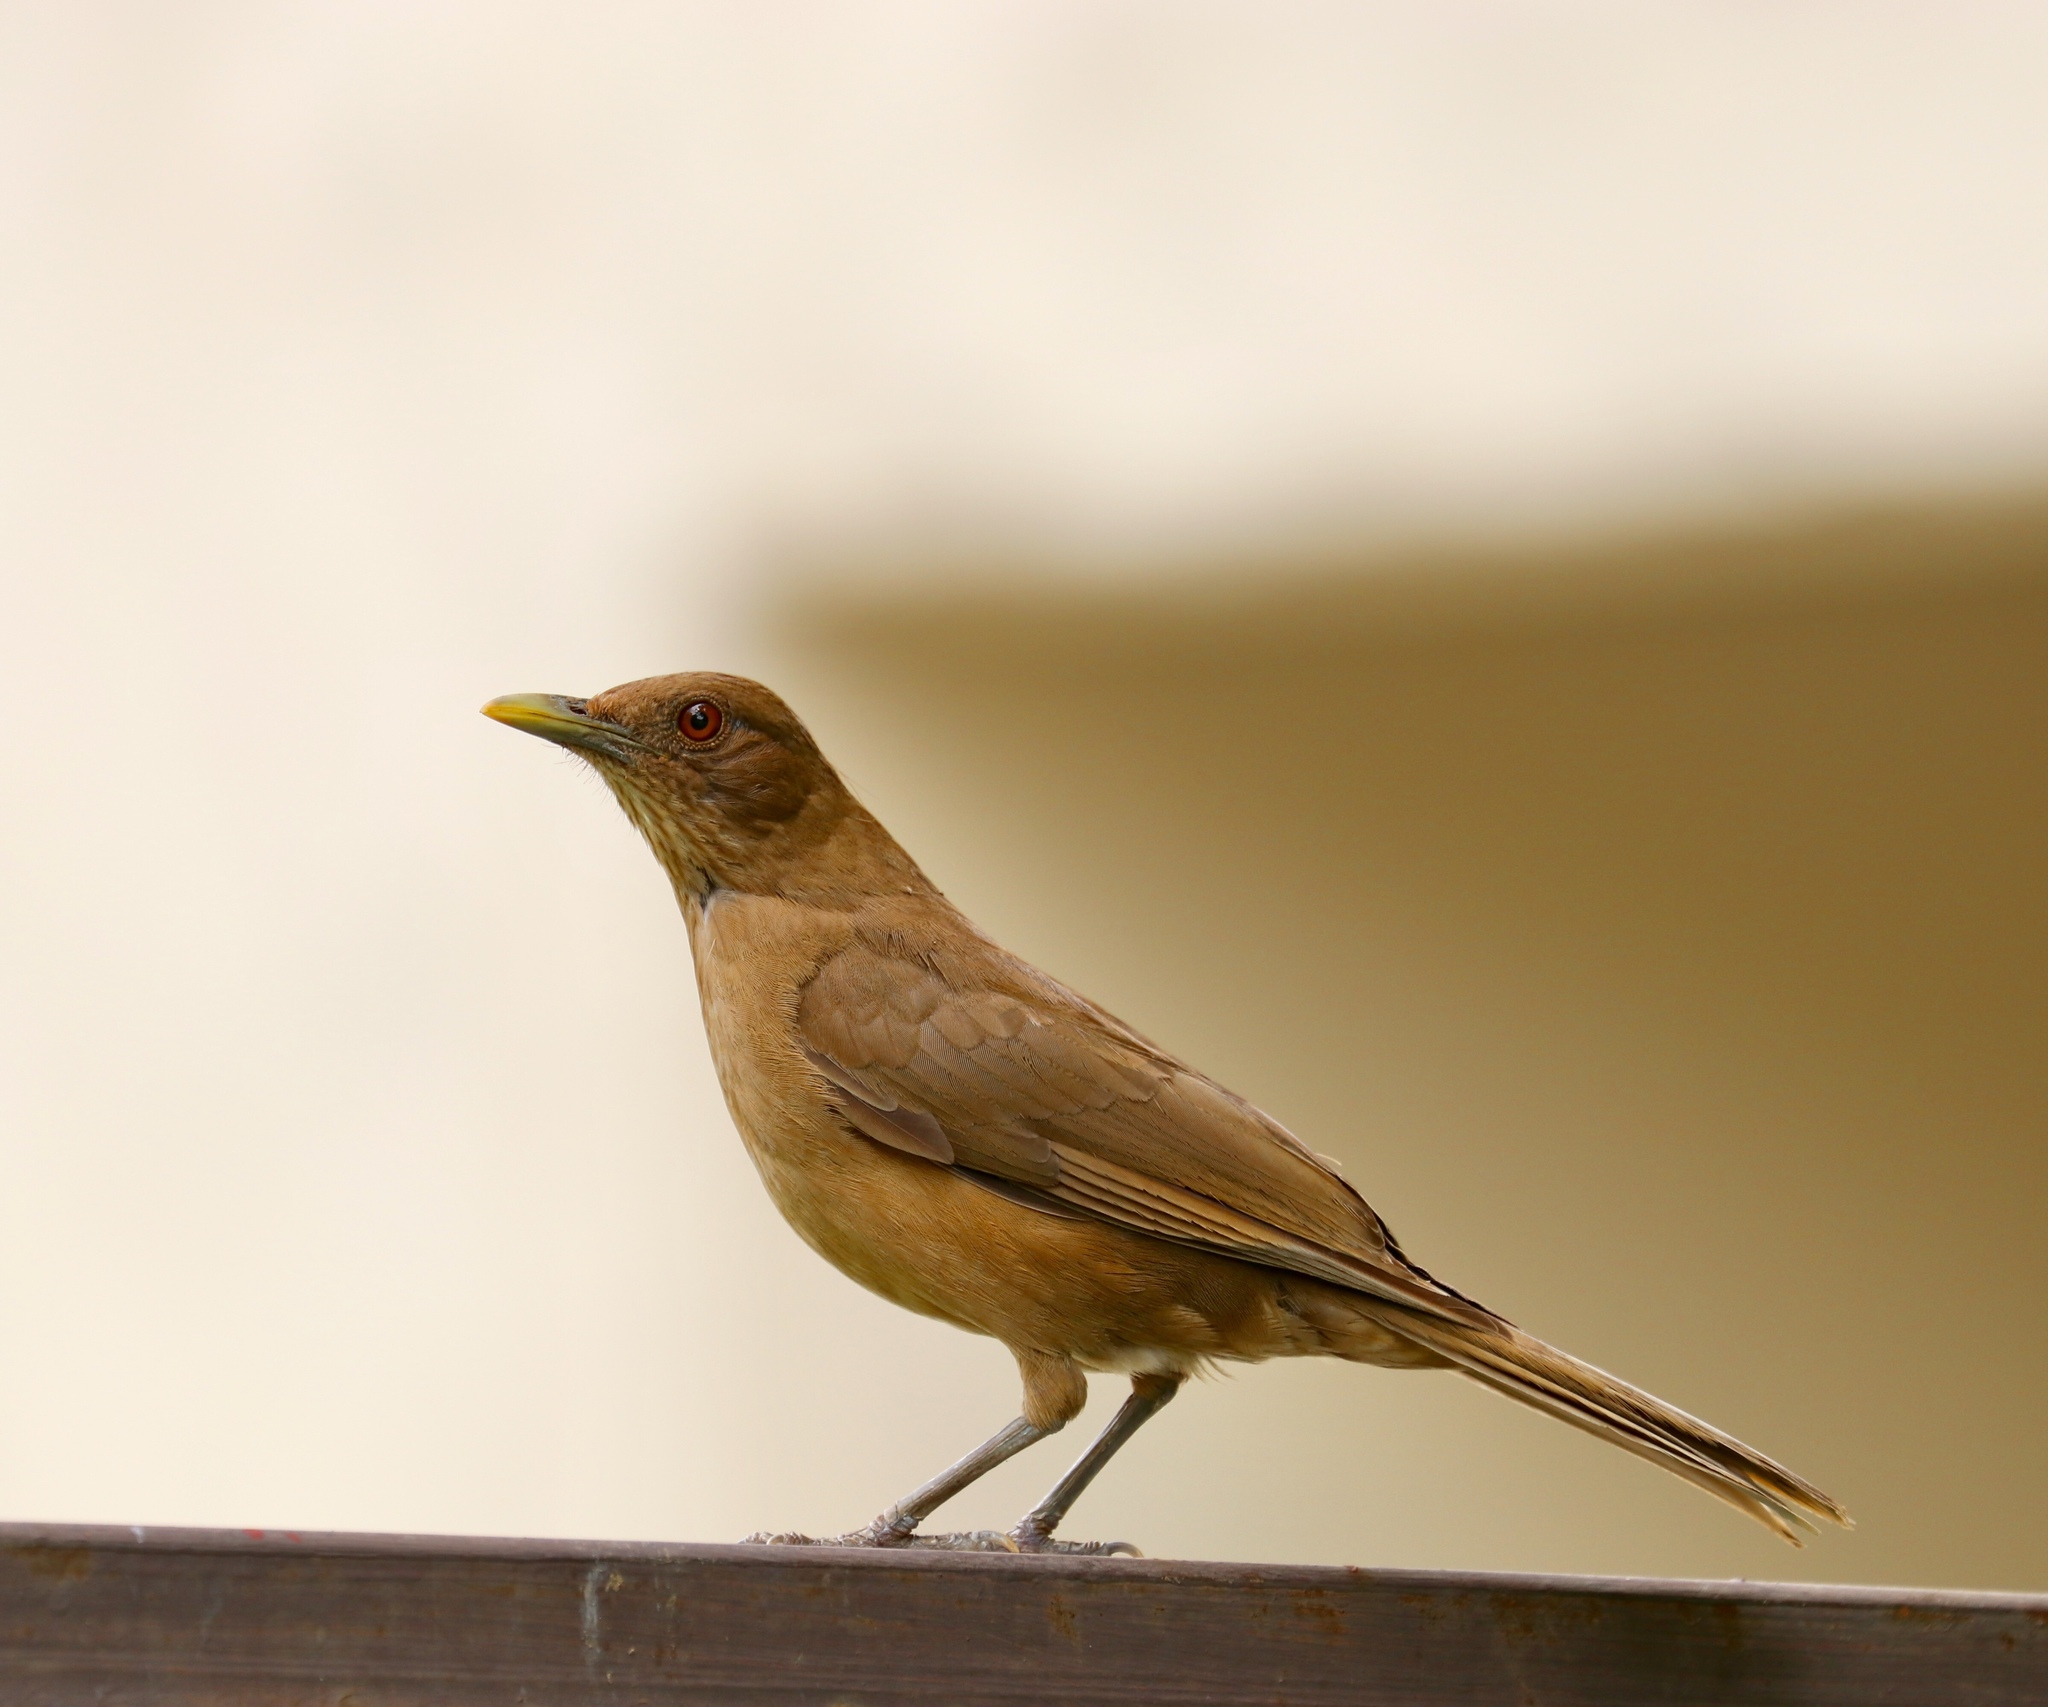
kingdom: Animalia
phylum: Chordata
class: Aves
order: Passeriformes
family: Turdidae
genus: Turdus
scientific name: Turdus grayi
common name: Clay-colored thrush
